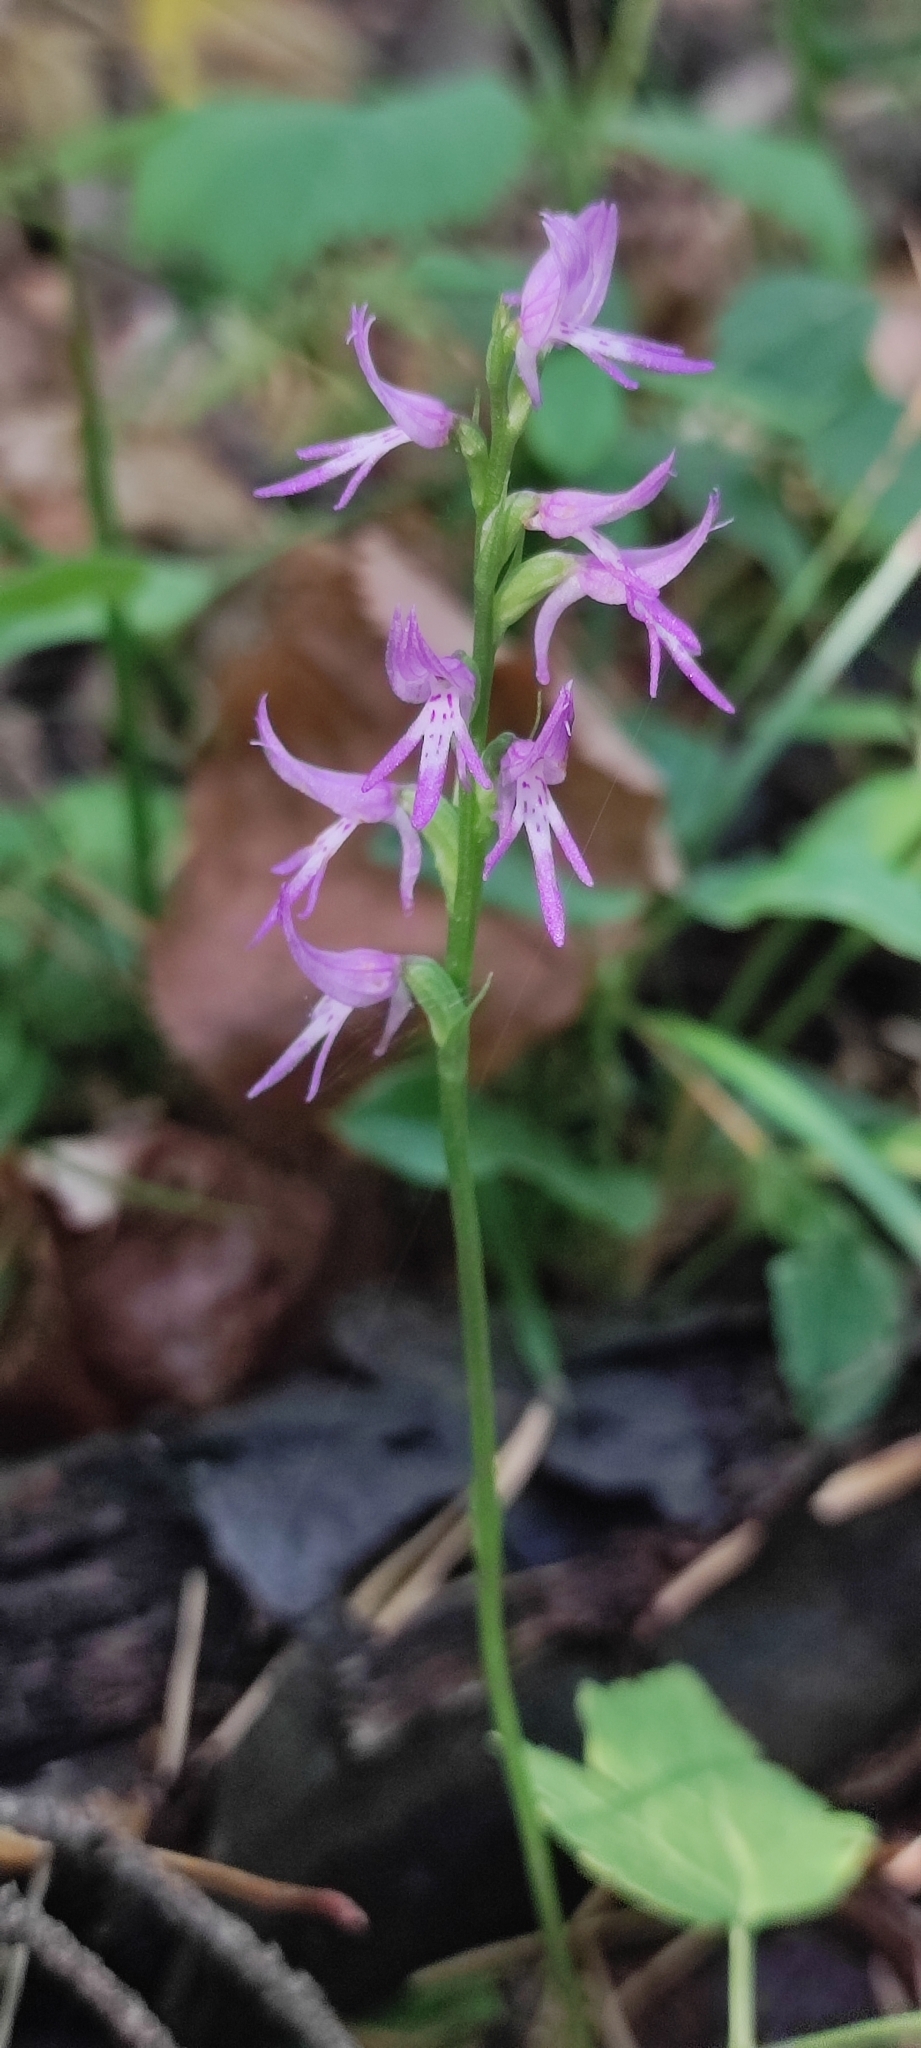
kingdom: Plantae
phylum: Tracheophyta
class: Liliopsida
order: Asparagales
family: Orchidaceae
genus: Hemipilia
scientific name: Hemipilia cucullata
